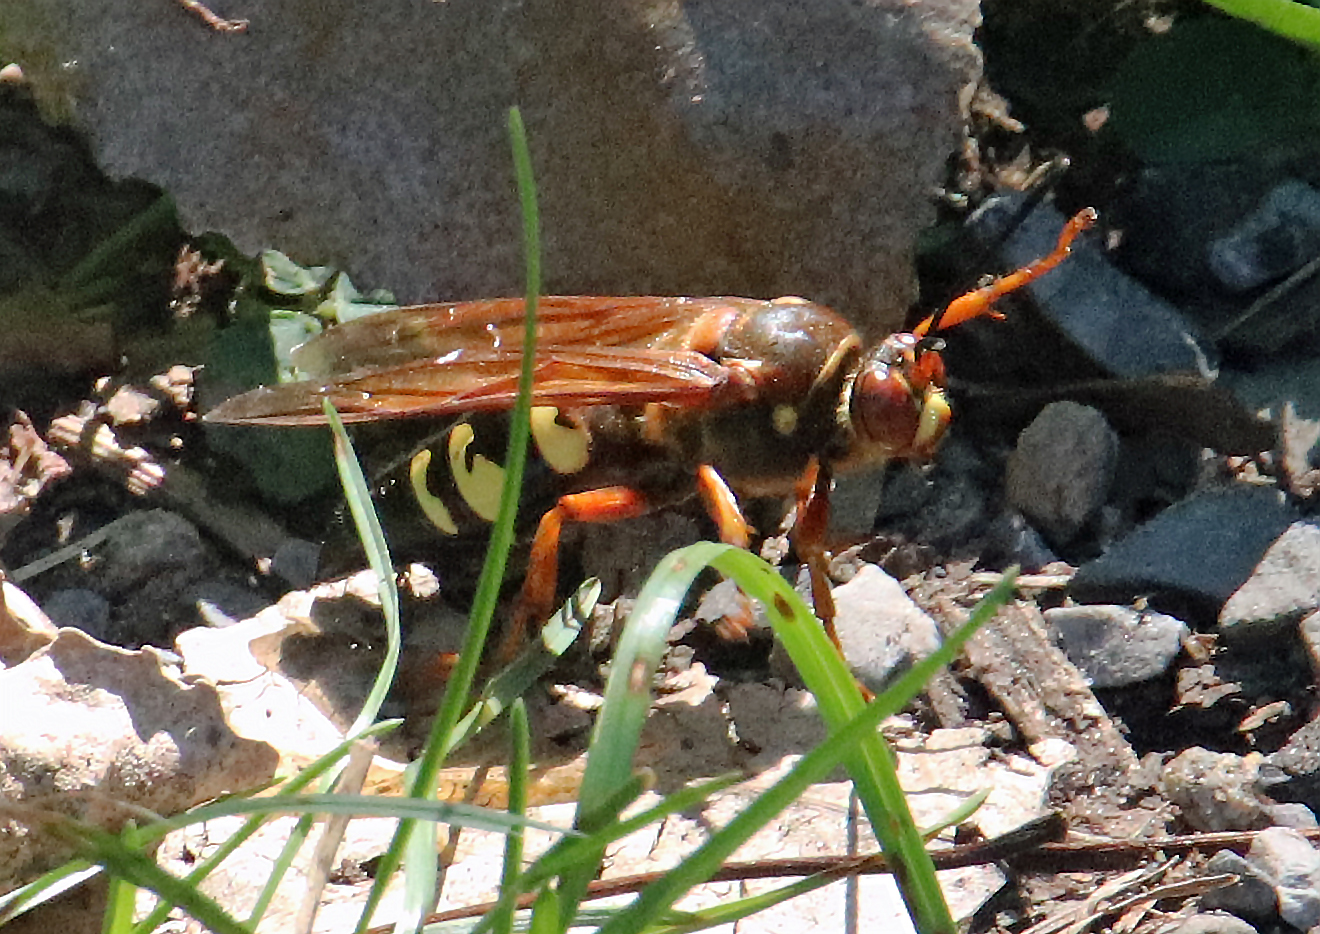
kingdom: Animalia
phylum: Arthropoda
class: Insecta
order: Hymenoptera
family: Crabronidae
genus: Sphecius
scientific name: Sphecius speciosus
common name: Cicada killer
